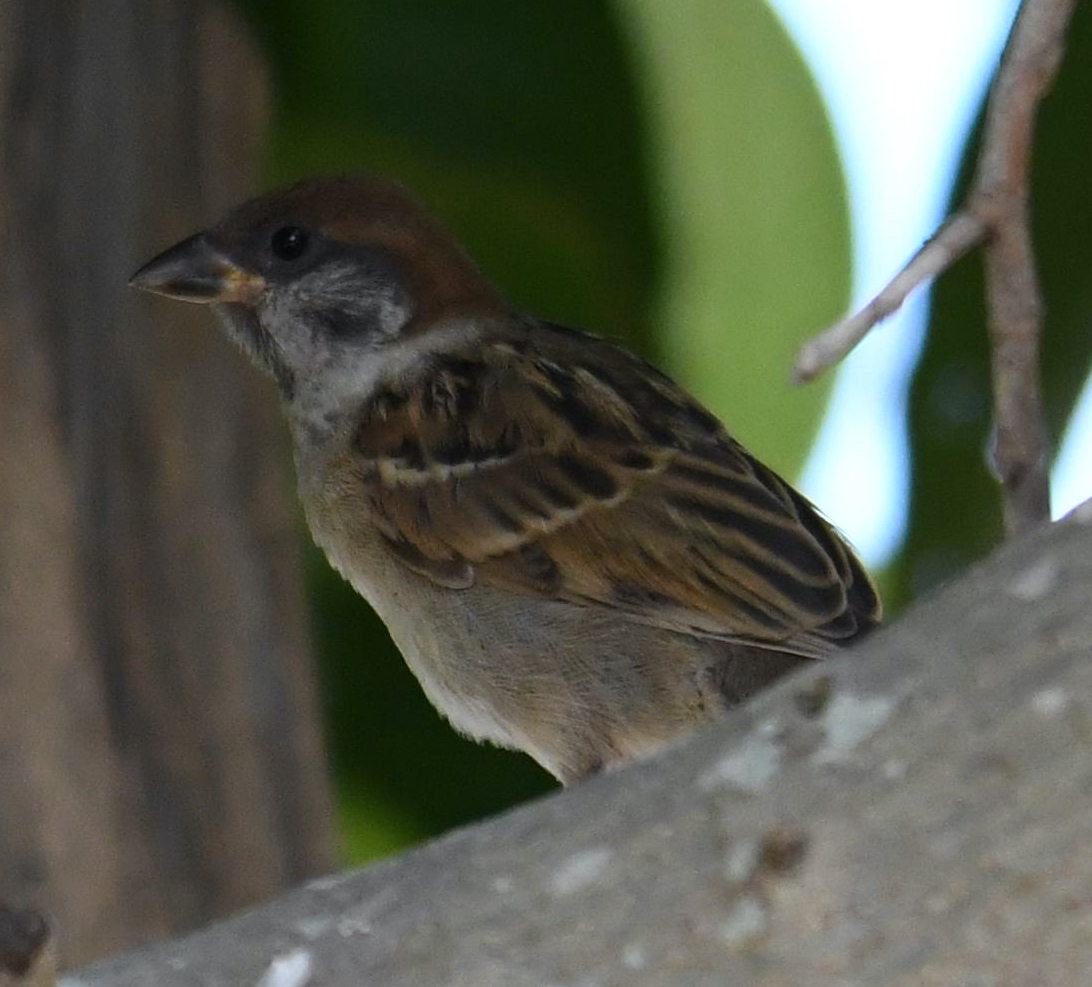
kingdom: Animalia
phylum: Chordata
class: Aves
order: Passeriformes
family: Passeridae
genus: Passer
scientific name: Passer montanus
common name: Eurasian tree sparrow
